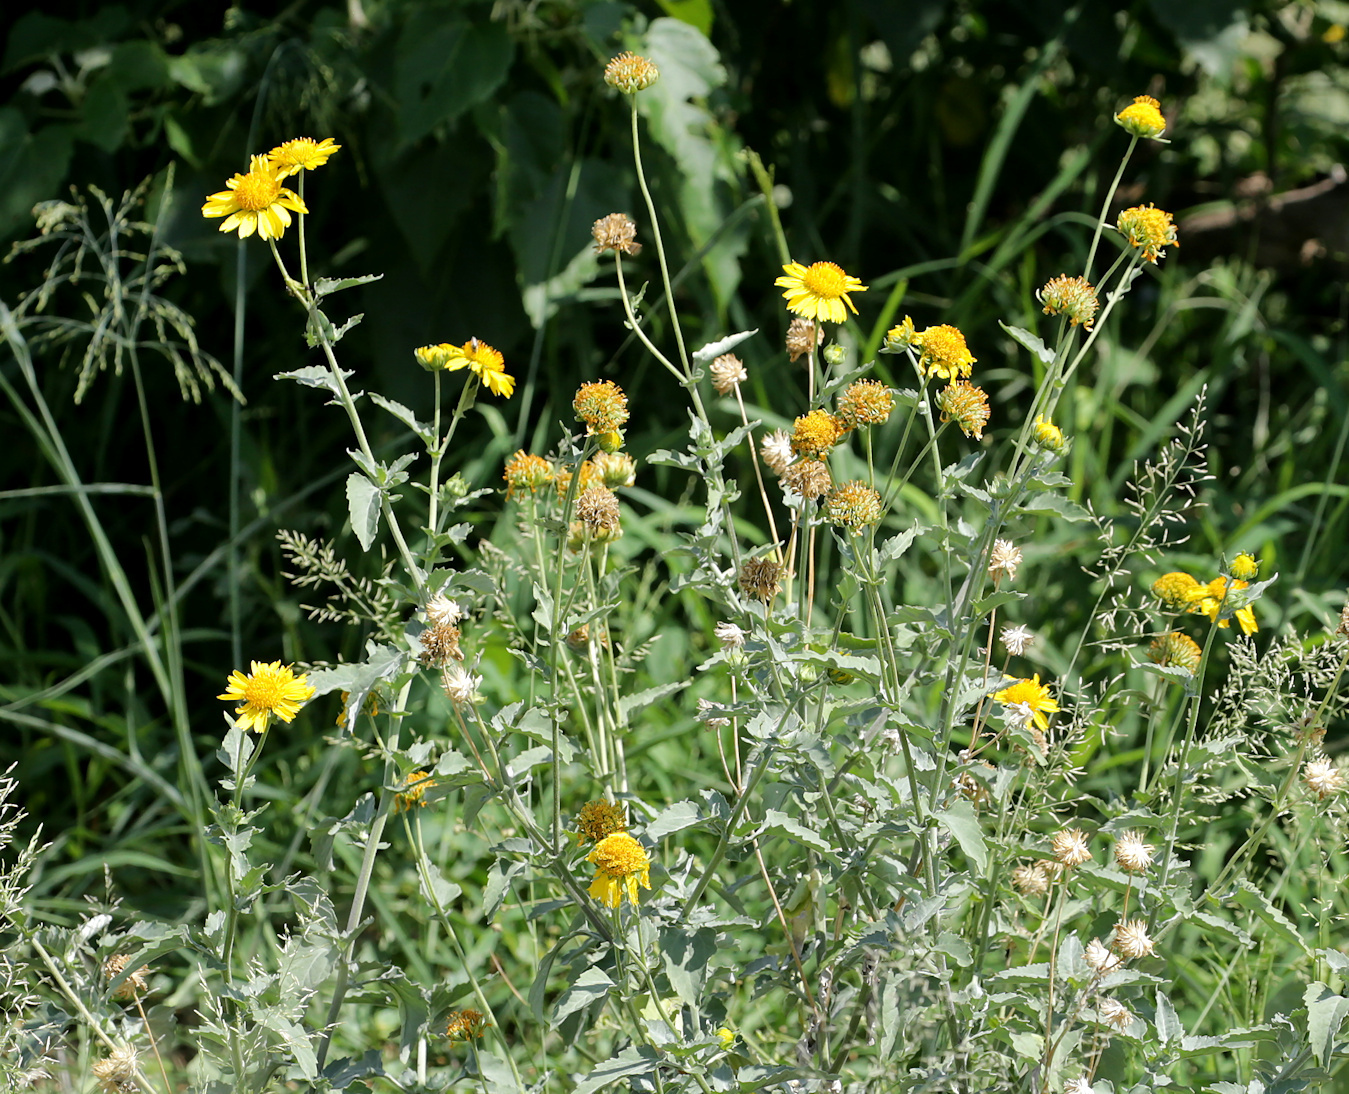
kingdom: Plantae
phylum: Tracheophyta
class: Magnoliopsida
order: Asterales
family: Asteraceae
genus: Verbesina
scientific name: Verbesina encelioides
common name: Golden crownbeard
